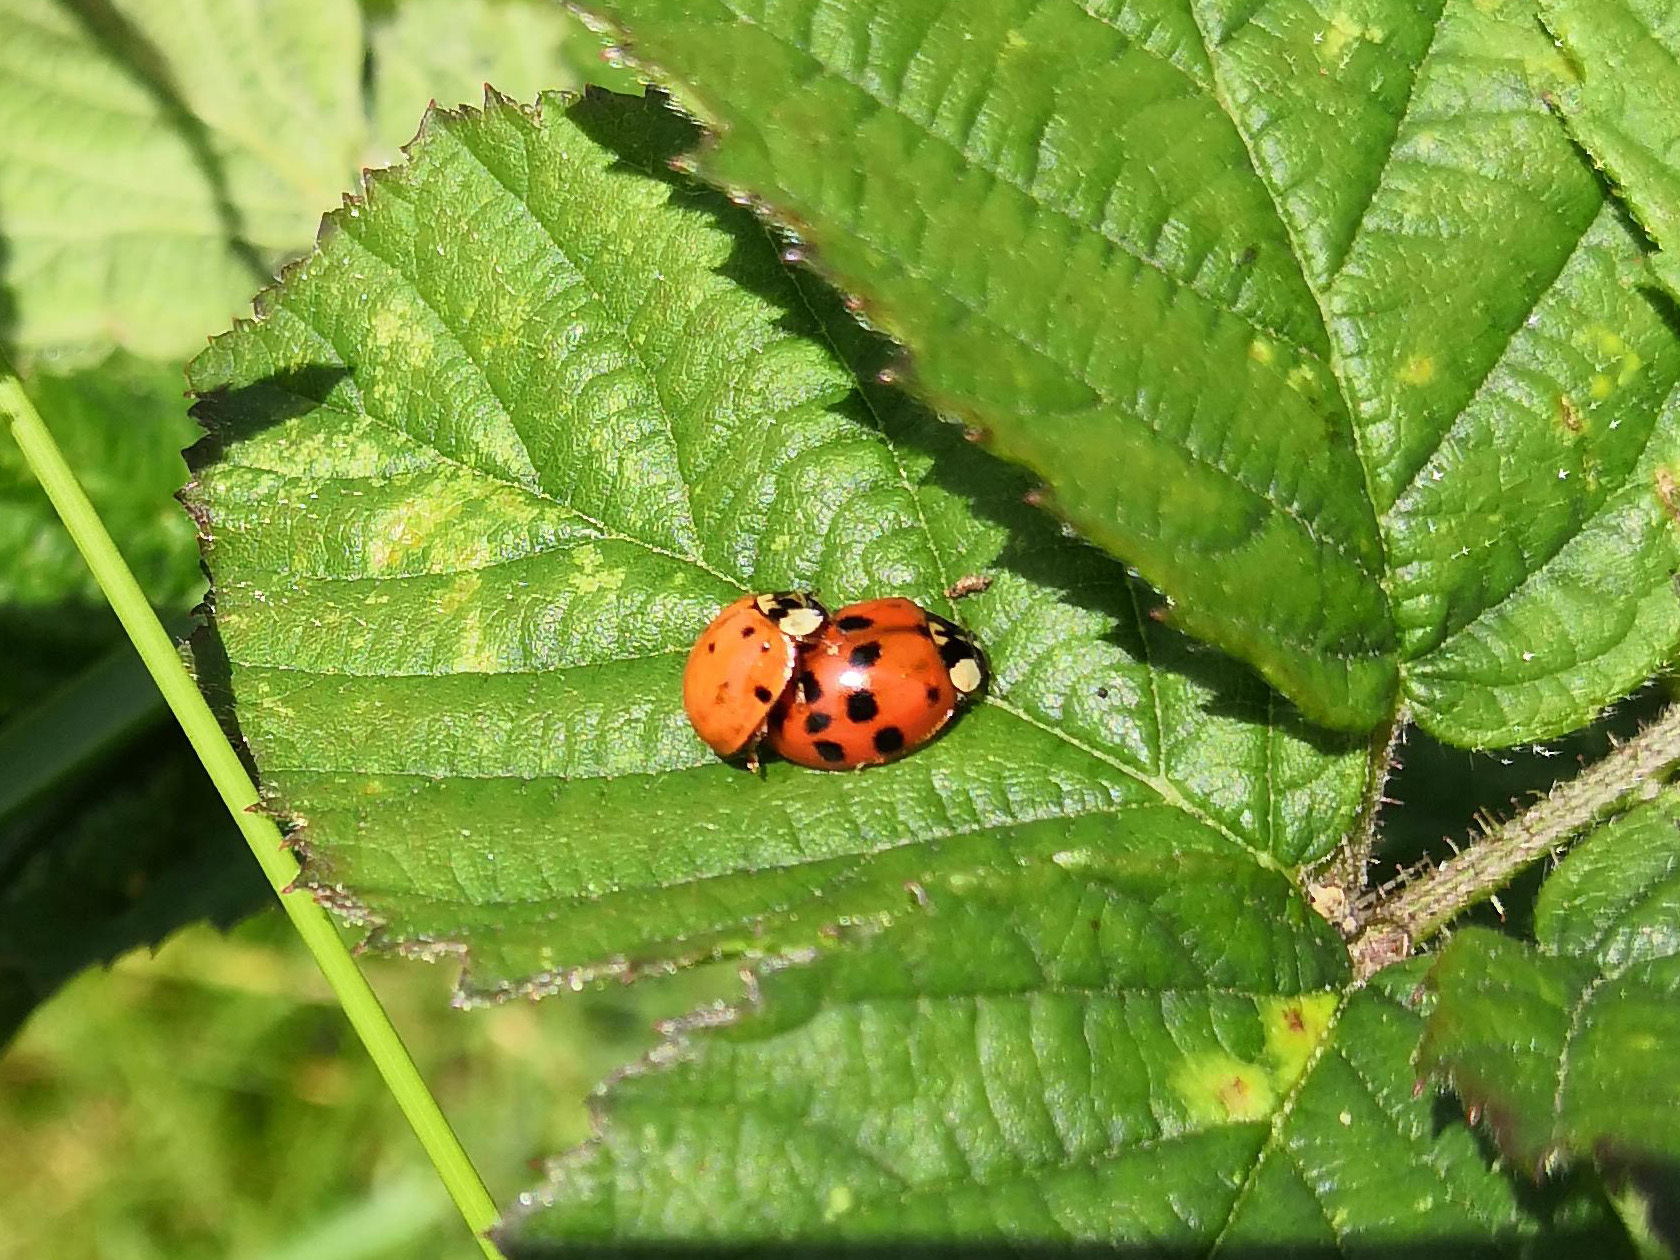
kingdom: Animalia
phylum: Arthropoda
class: Insecta
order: Coleoptera
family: Coccinellidae
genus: Harmonia
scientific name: Harmonia axyridis
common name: Harlequin ladybird
